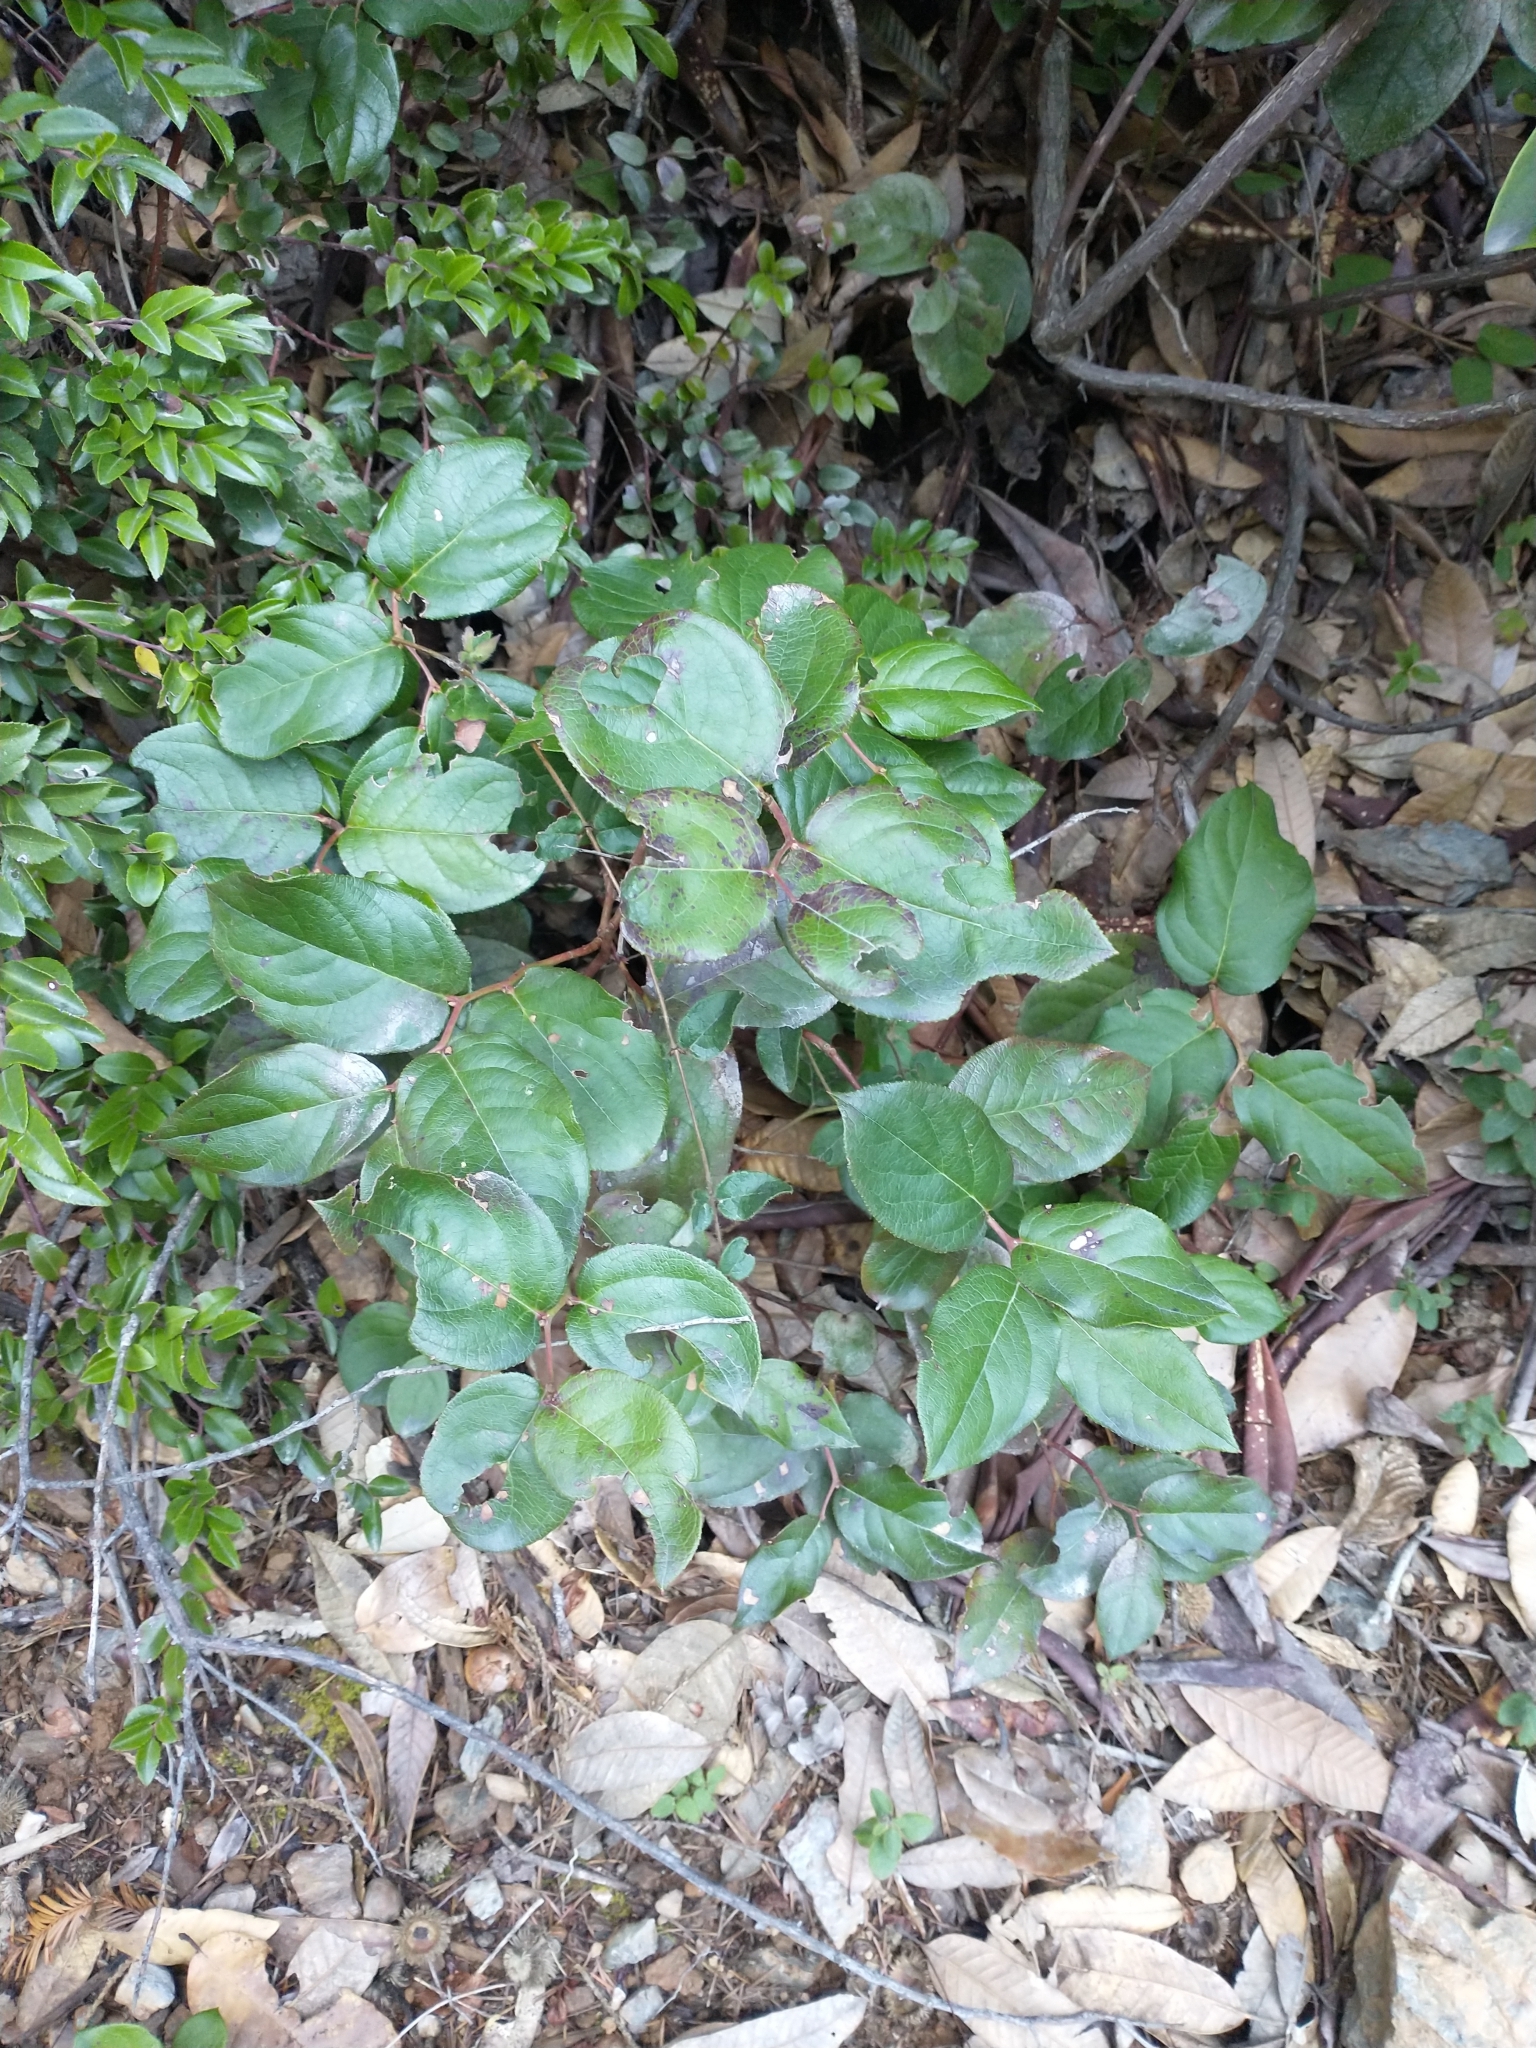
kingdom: Plantae
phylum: Tracheophyta
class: Magnoliopsida
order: Ericales
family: Ericaceae
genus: Gaultheria
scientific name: Gaultheria shallon
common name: Shallon
